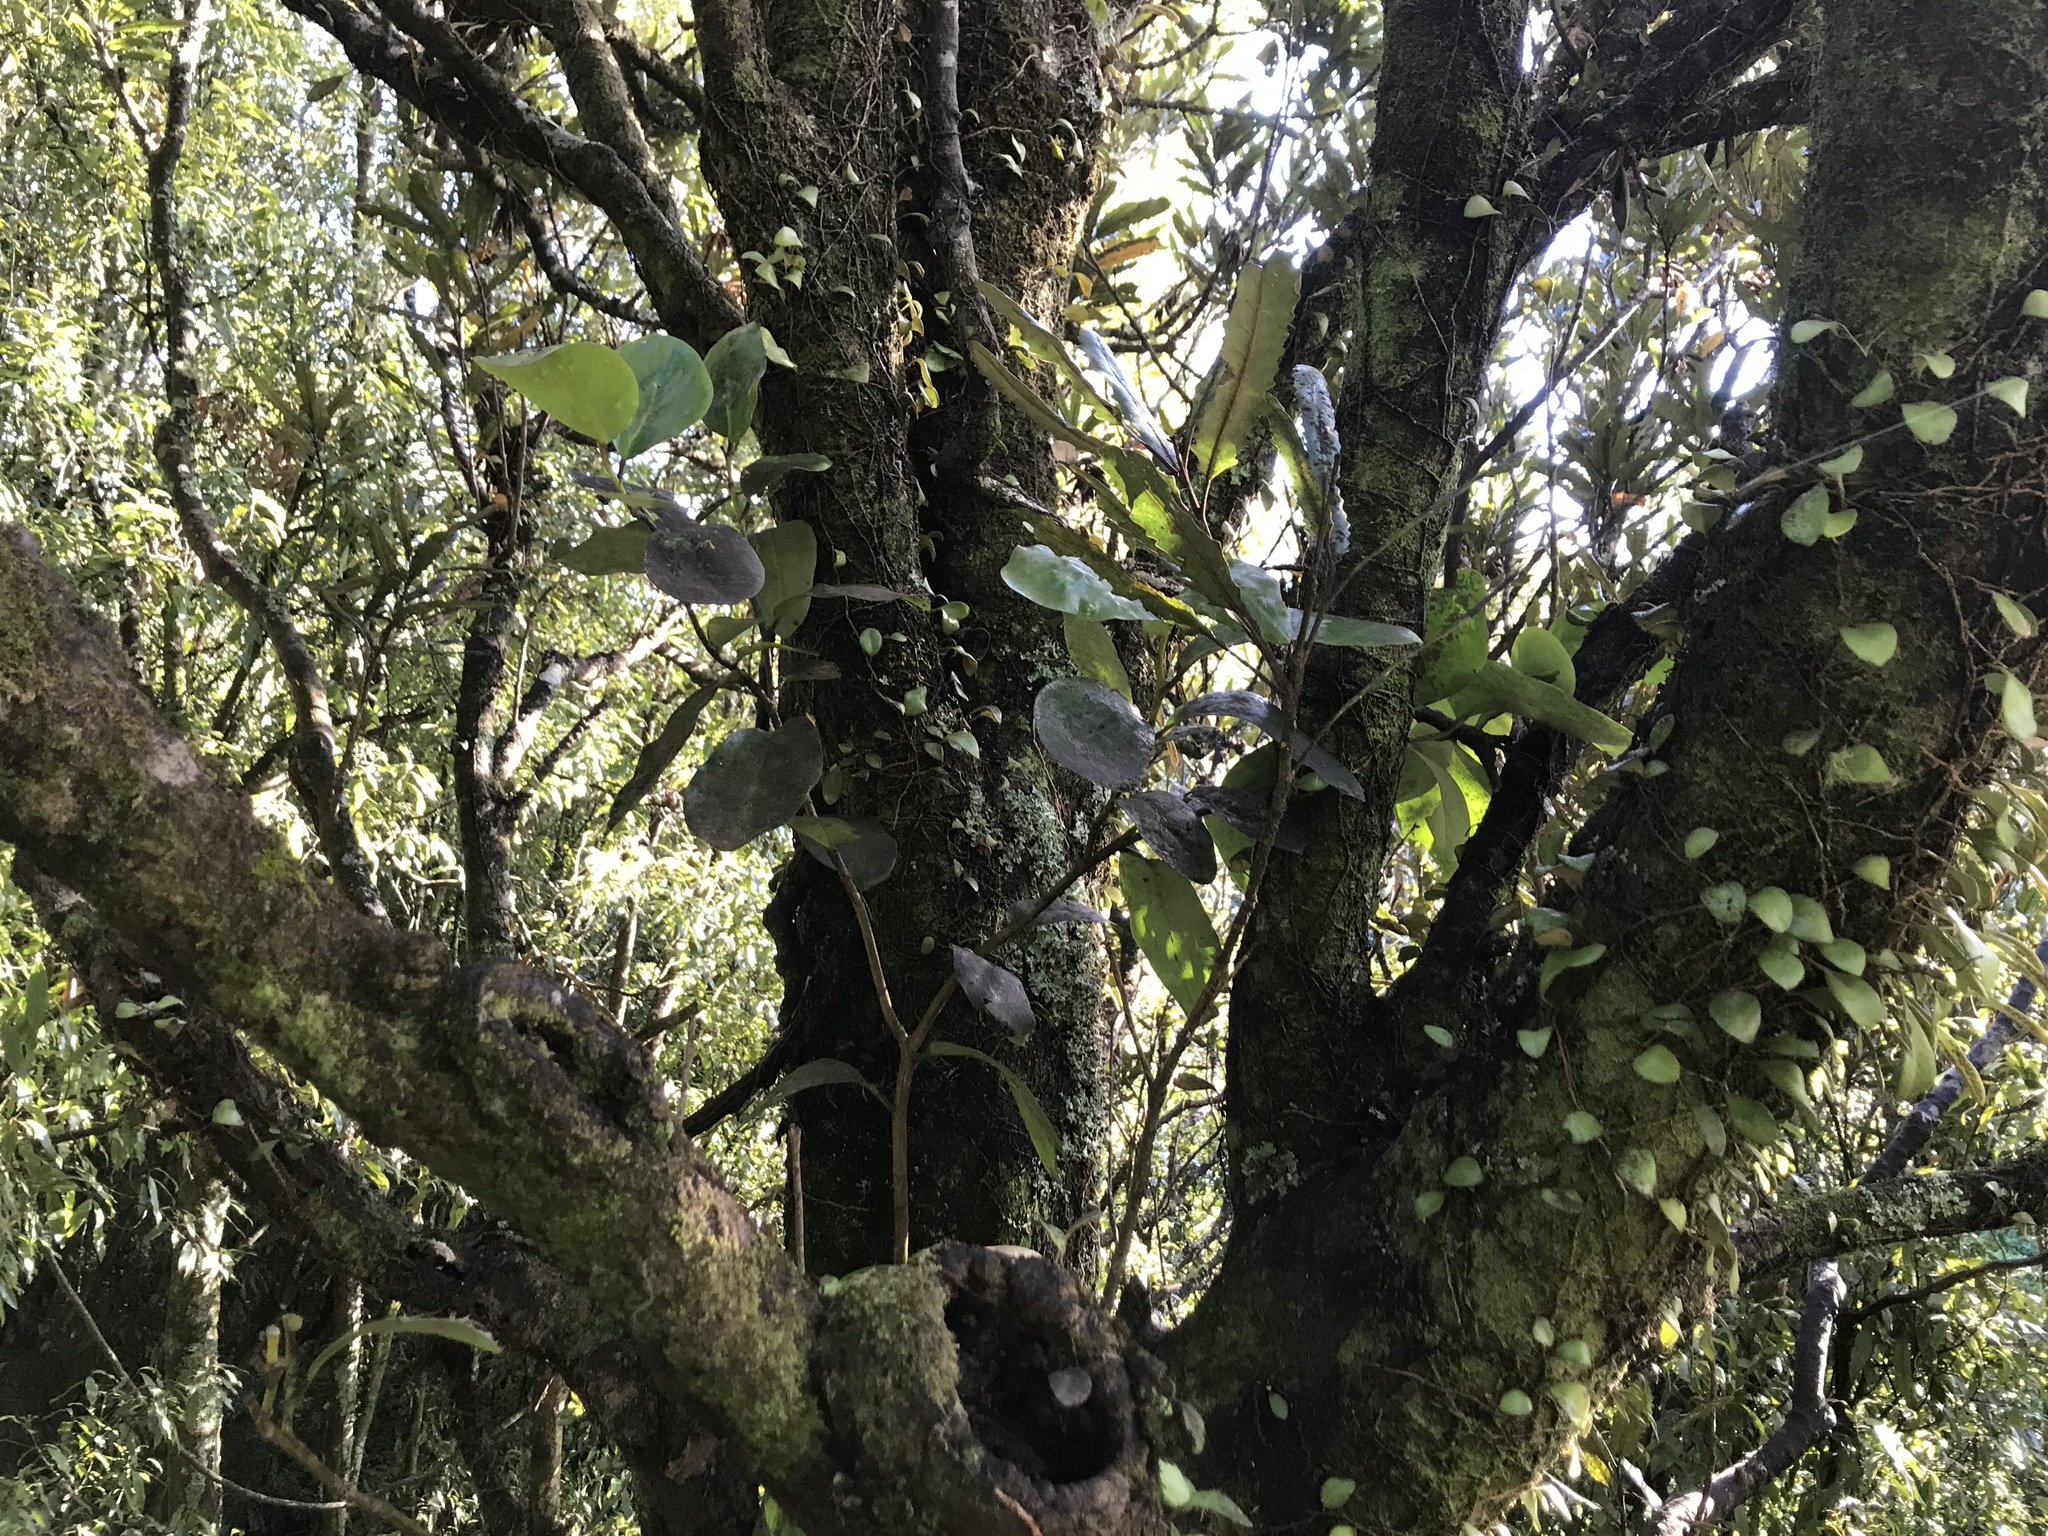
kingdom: Plantae
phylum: Tracheophyta
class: Magnoliopsida
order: Apiales
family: Griseliniaceae
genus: Griselinia
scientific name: Griselinia lucida
